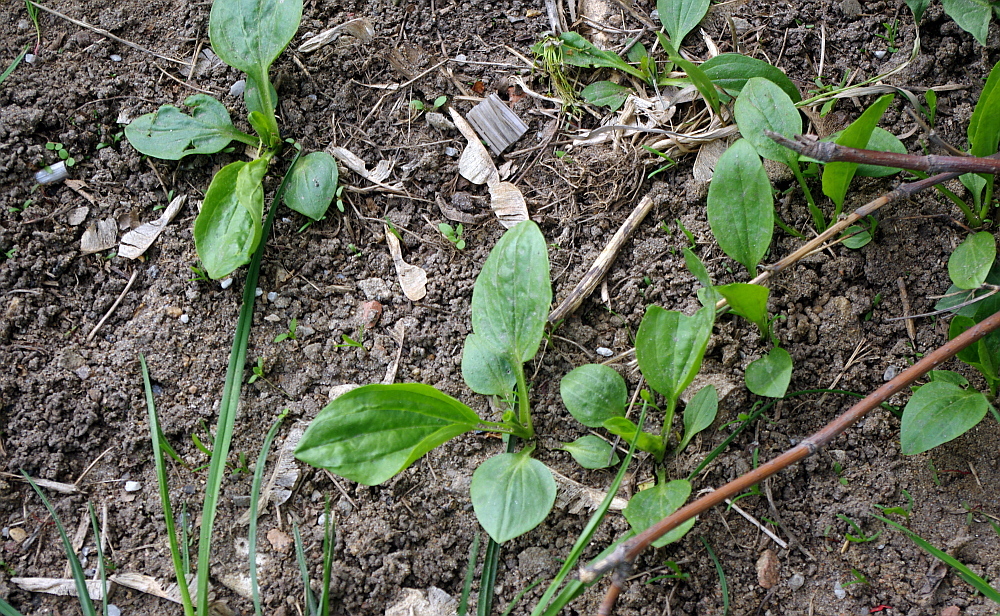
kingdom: Plantae
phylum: Tracheophyta
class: Magnoliopsida
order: Lamiales
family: Plantaginaceae
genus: Plantago
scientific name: Plantago major
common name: Common plantain
